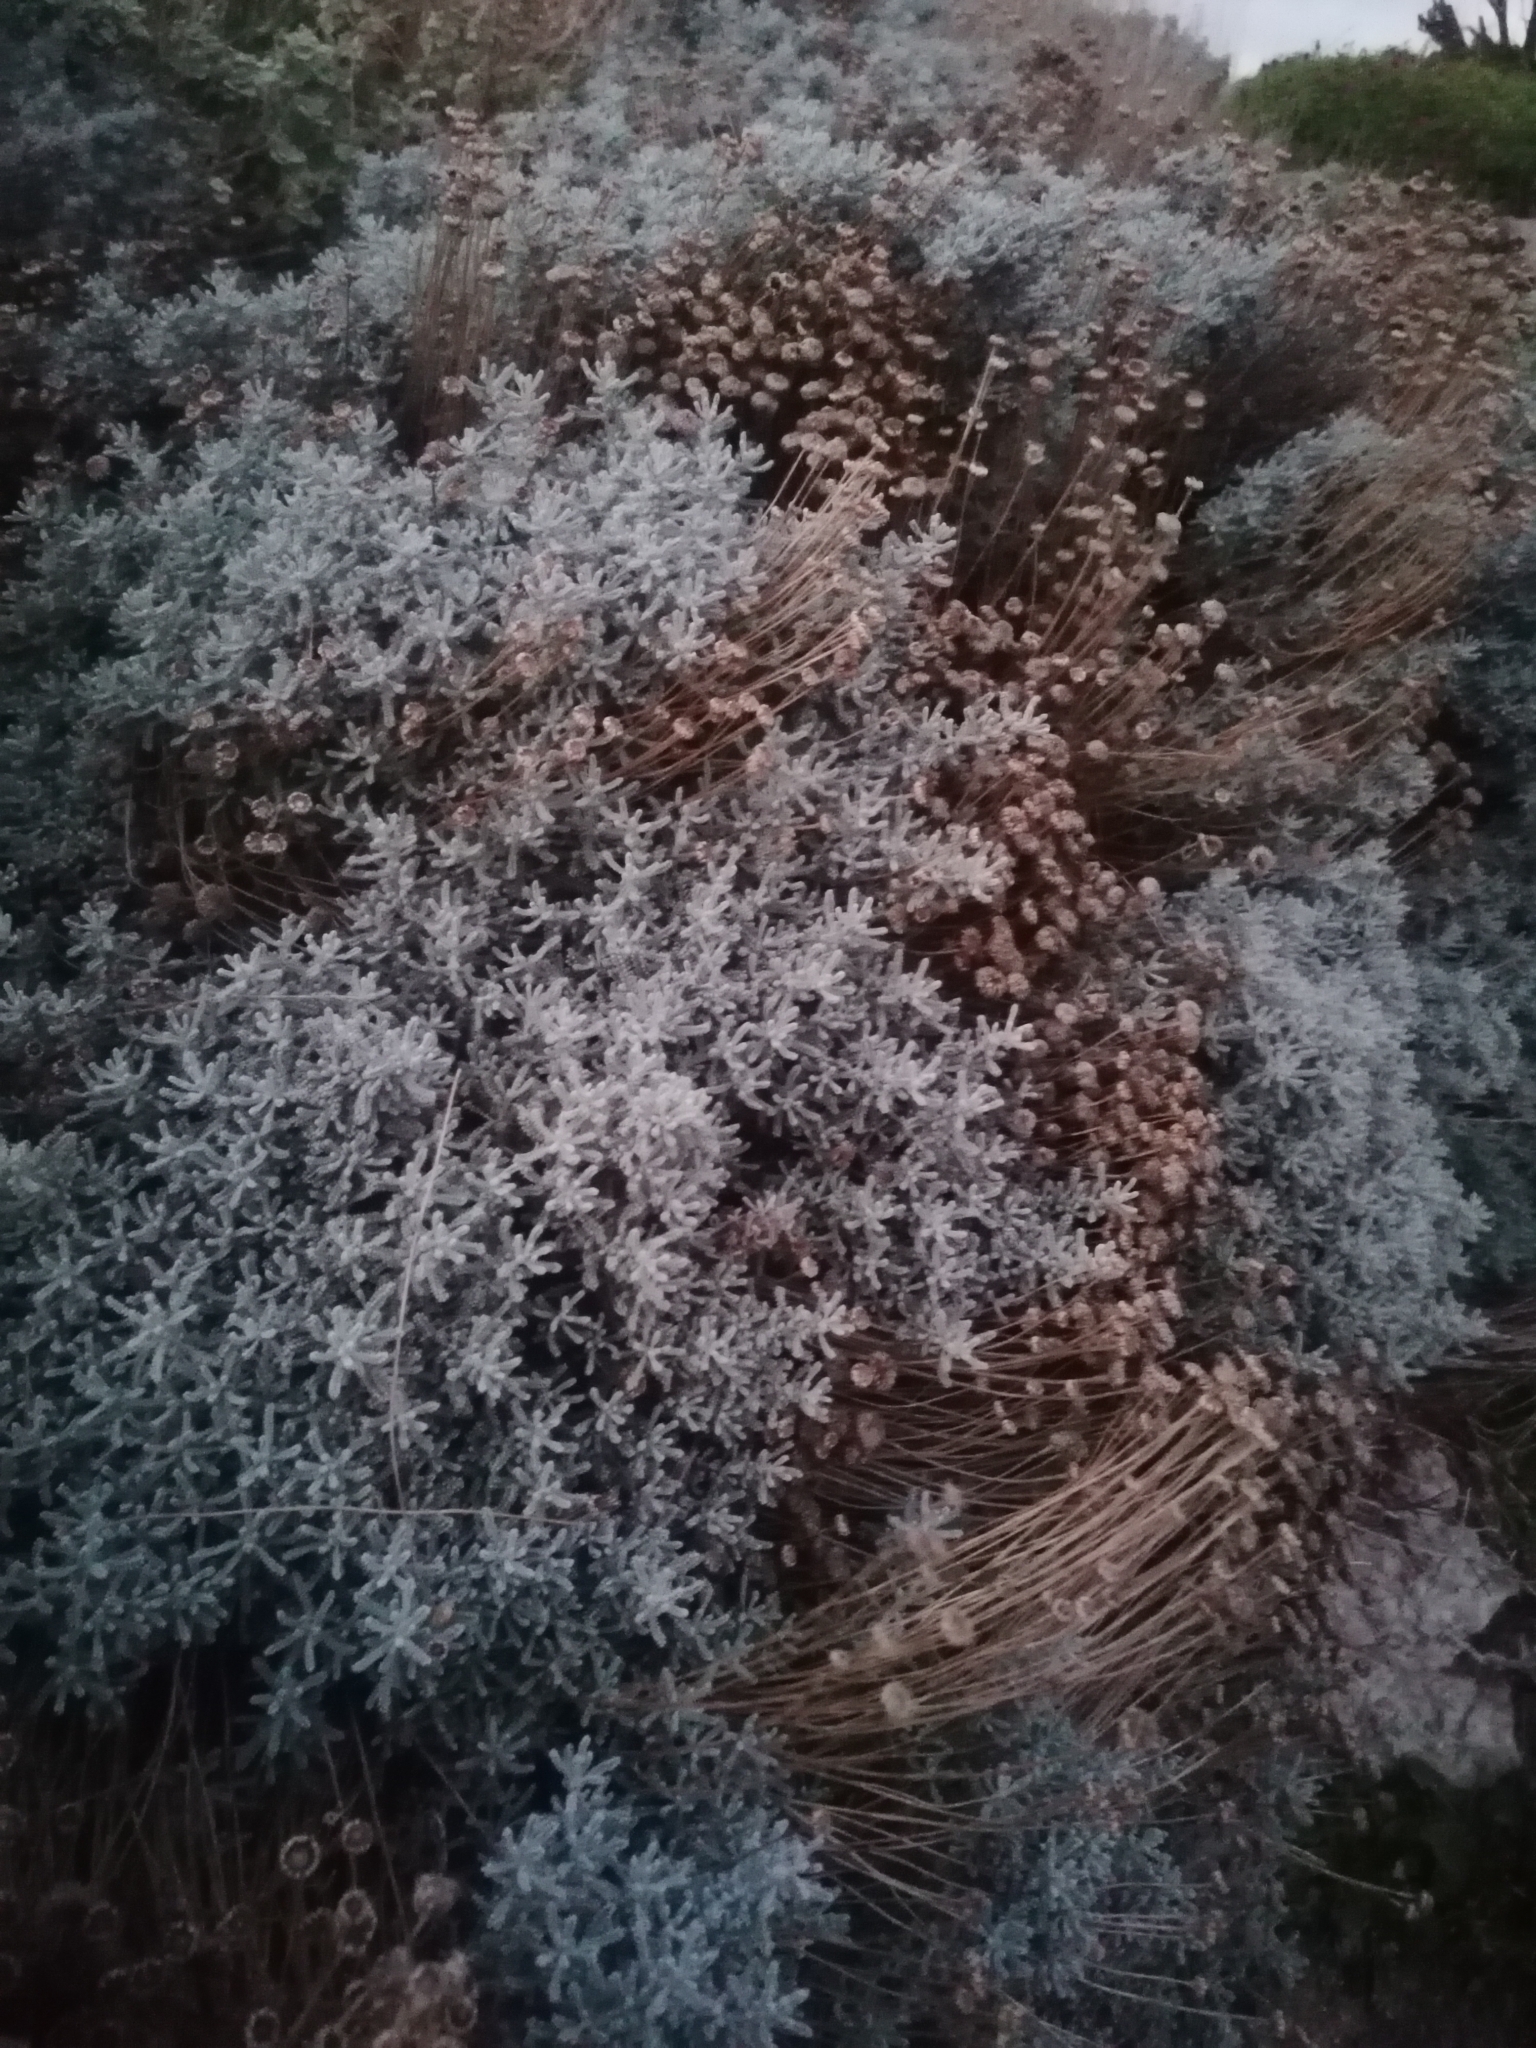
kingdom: Plantae
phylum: Tracheophyta
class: Magnoliopsida
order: Asterales
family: Asteraceae
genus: Santolina
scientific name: Santolina chamaecyparissus
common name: Lavender-cotton
